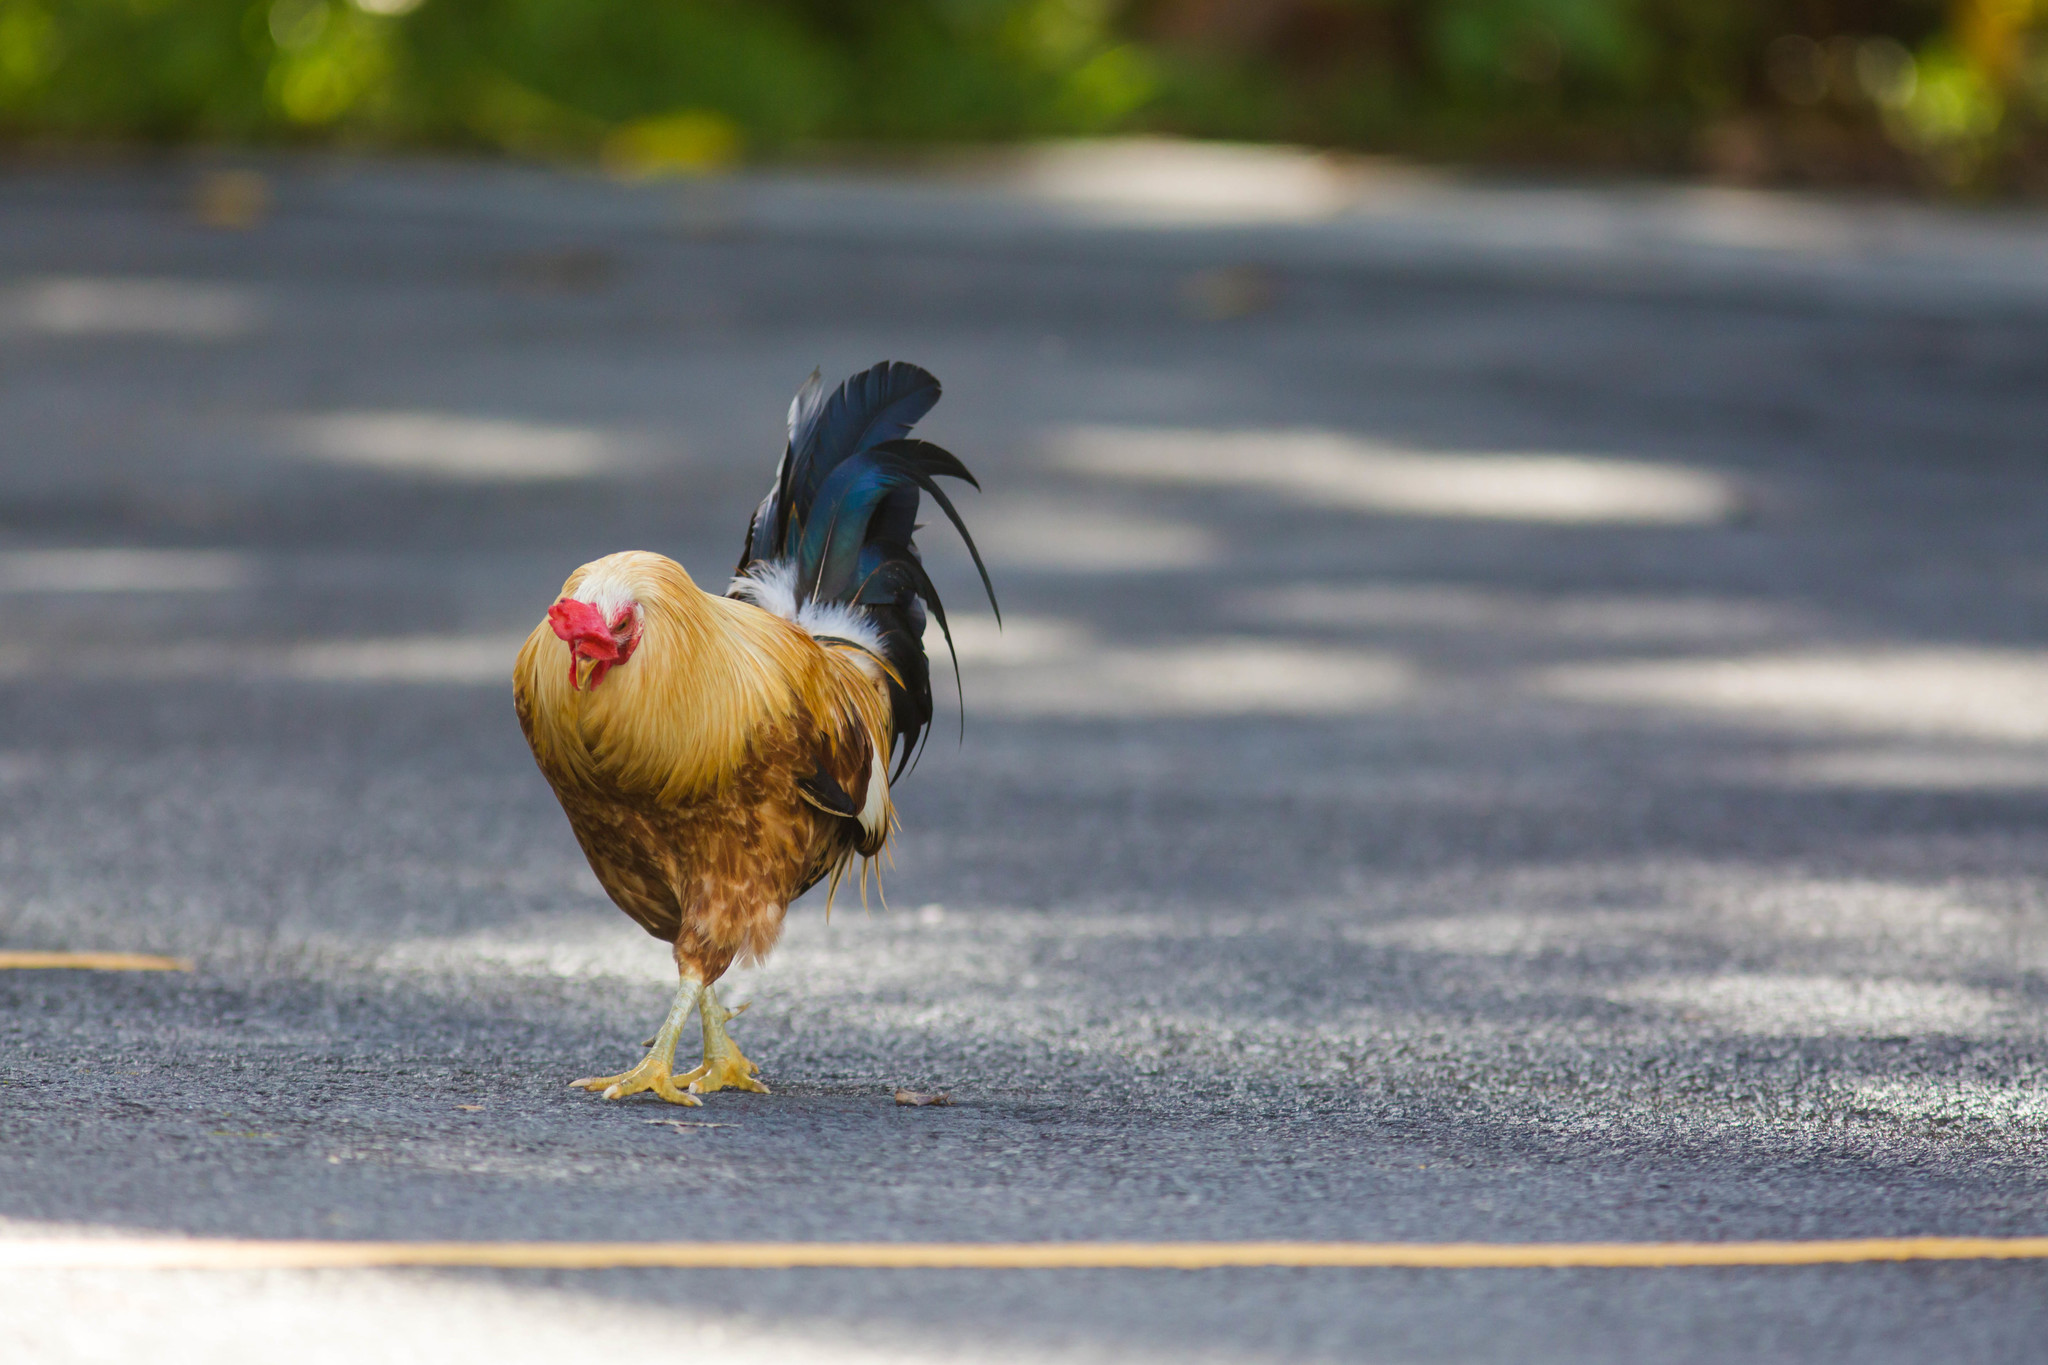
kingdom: Animalia
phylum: Chordata
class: Aves
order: Galliformes
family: Phasianidae
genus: Gallus
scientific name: Gallus gallus
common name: Red junglefowl
